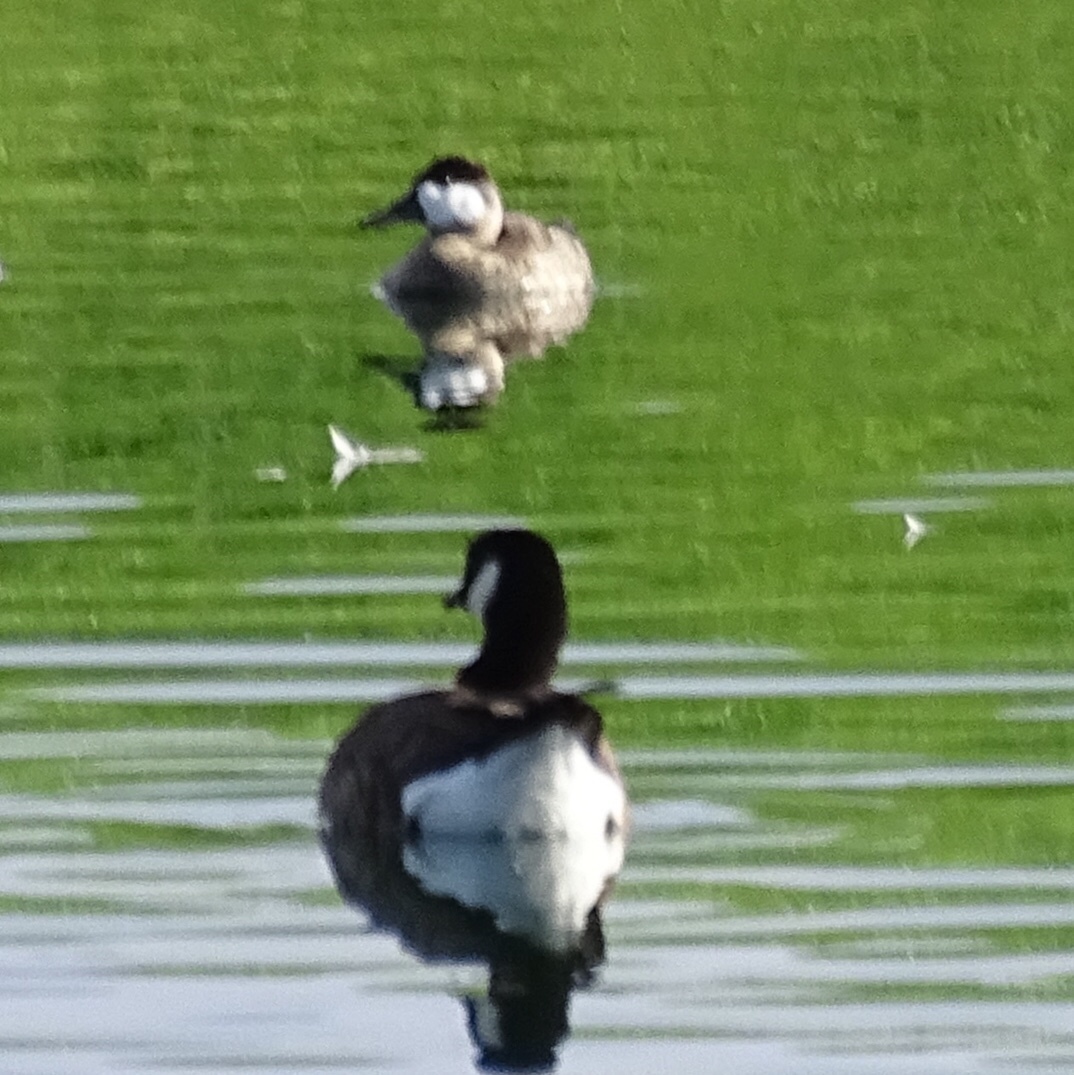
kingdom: Animalia
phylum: Chordata
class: Aves
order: Anseriformes
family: Anatidae
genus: Branta
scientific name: Branta hutchinsii
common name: Cackling goose
